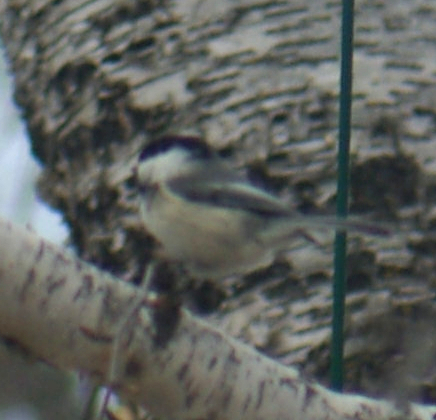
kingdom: Animalia
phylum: Chordata
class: Aves
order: Passeriformes
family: Paridae
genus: Poecile
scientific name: Poecile atricapillus
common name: Black-capped chickadee
